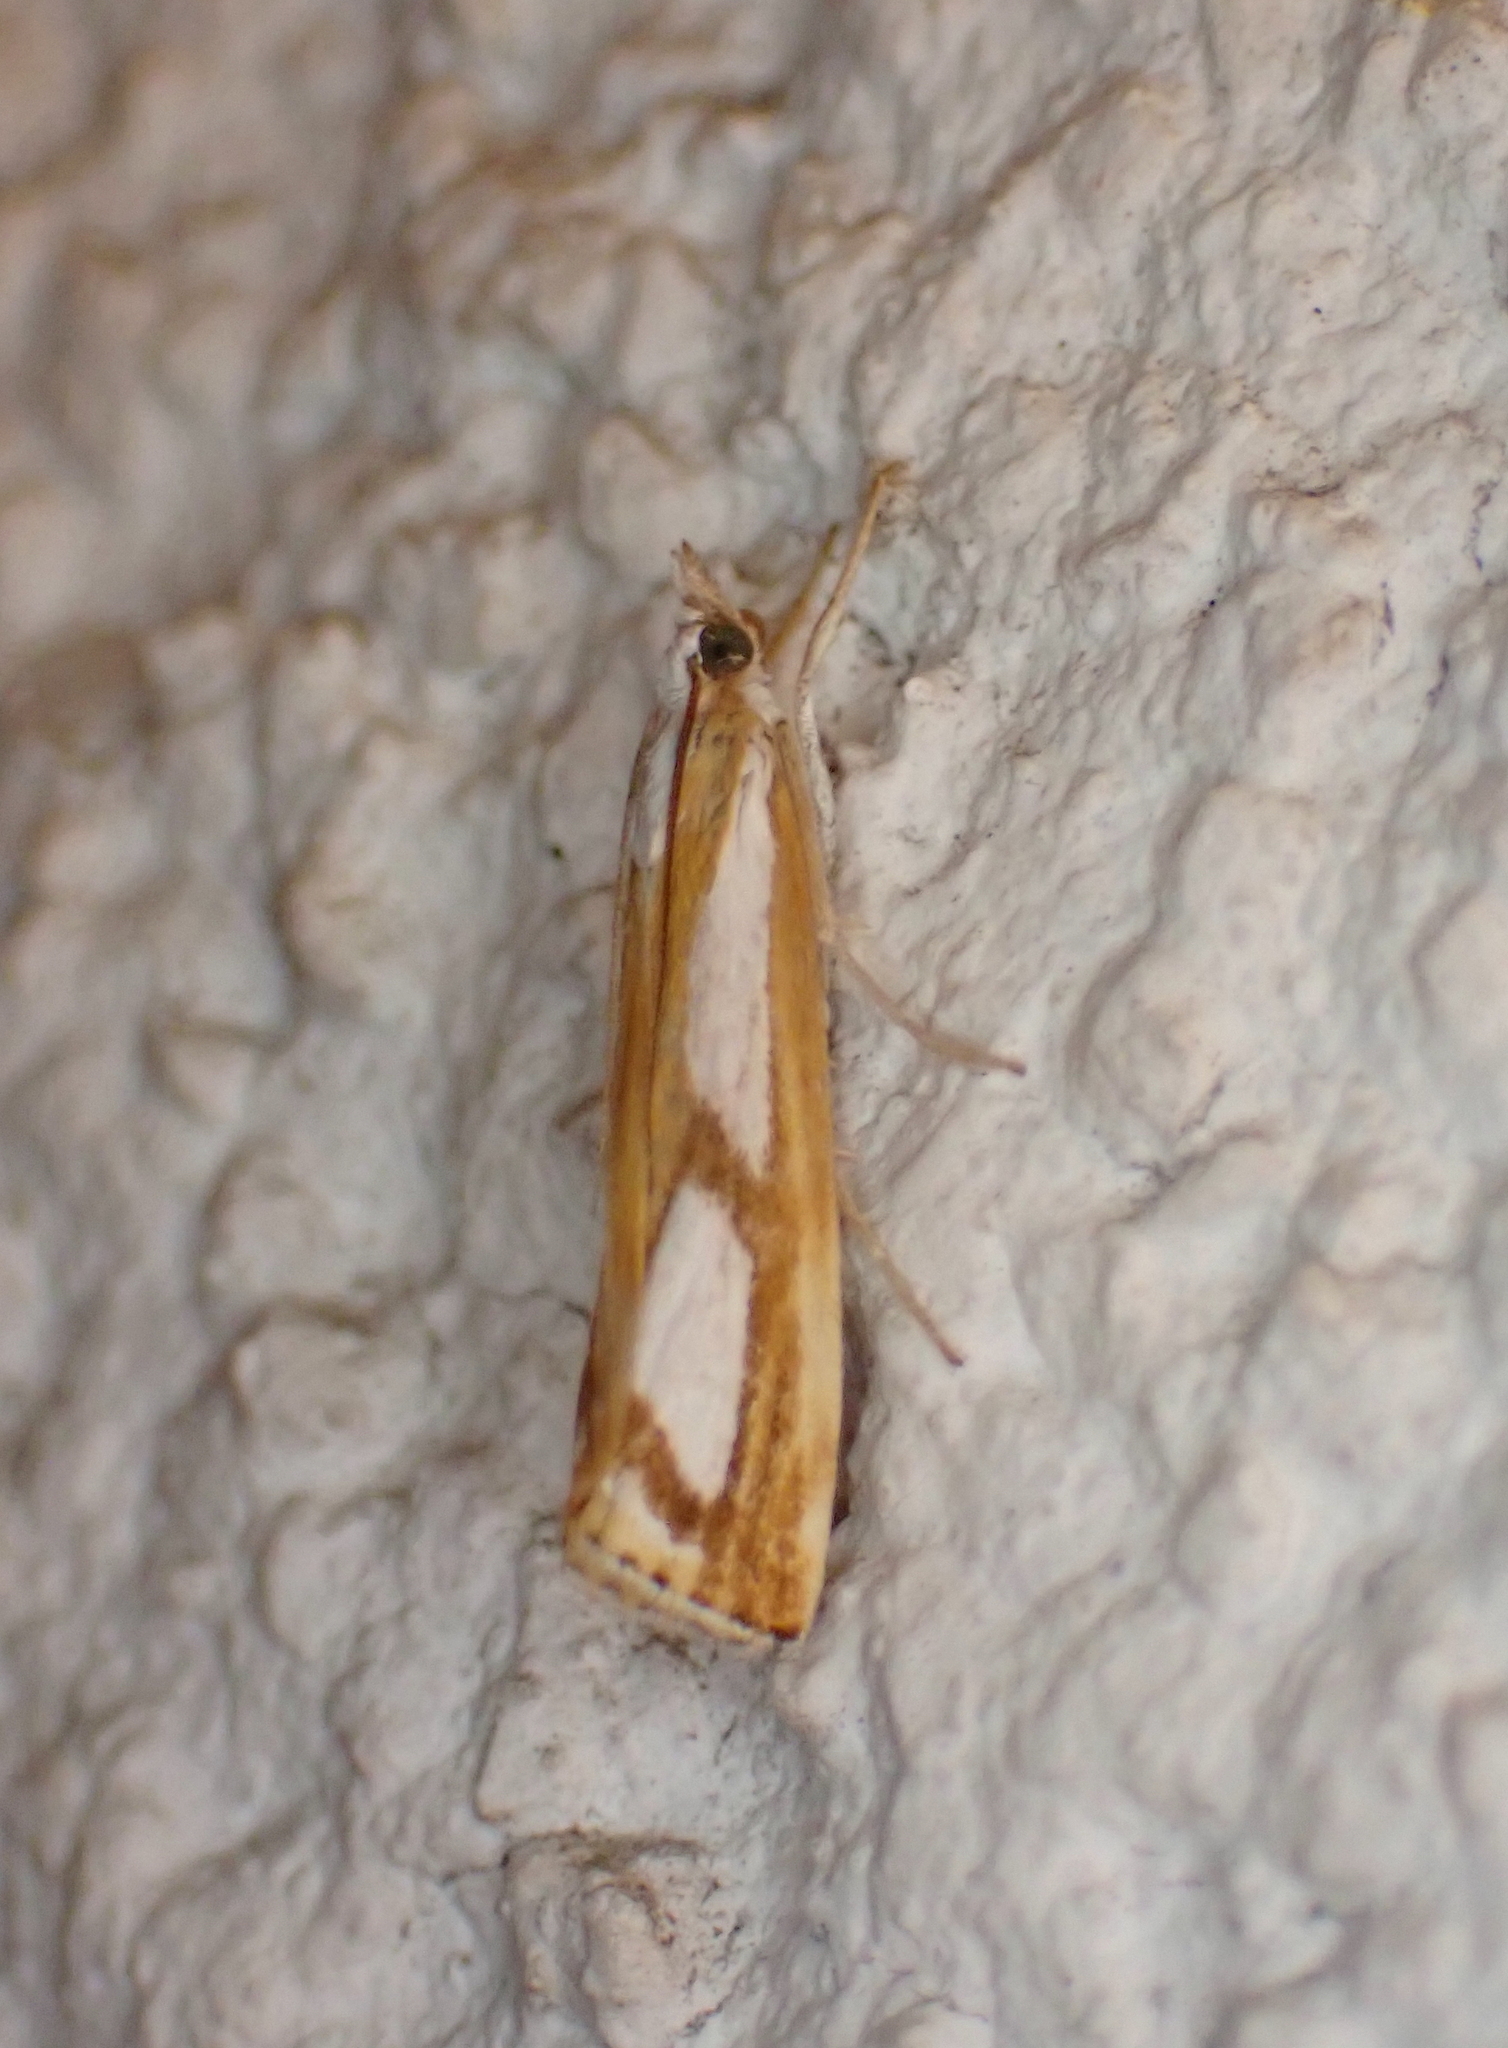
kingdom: Animalia
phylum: Arthropoda
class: Insecta
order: Lepidoptera
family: Crambidae
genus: Catoptria
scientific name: Catoptria
